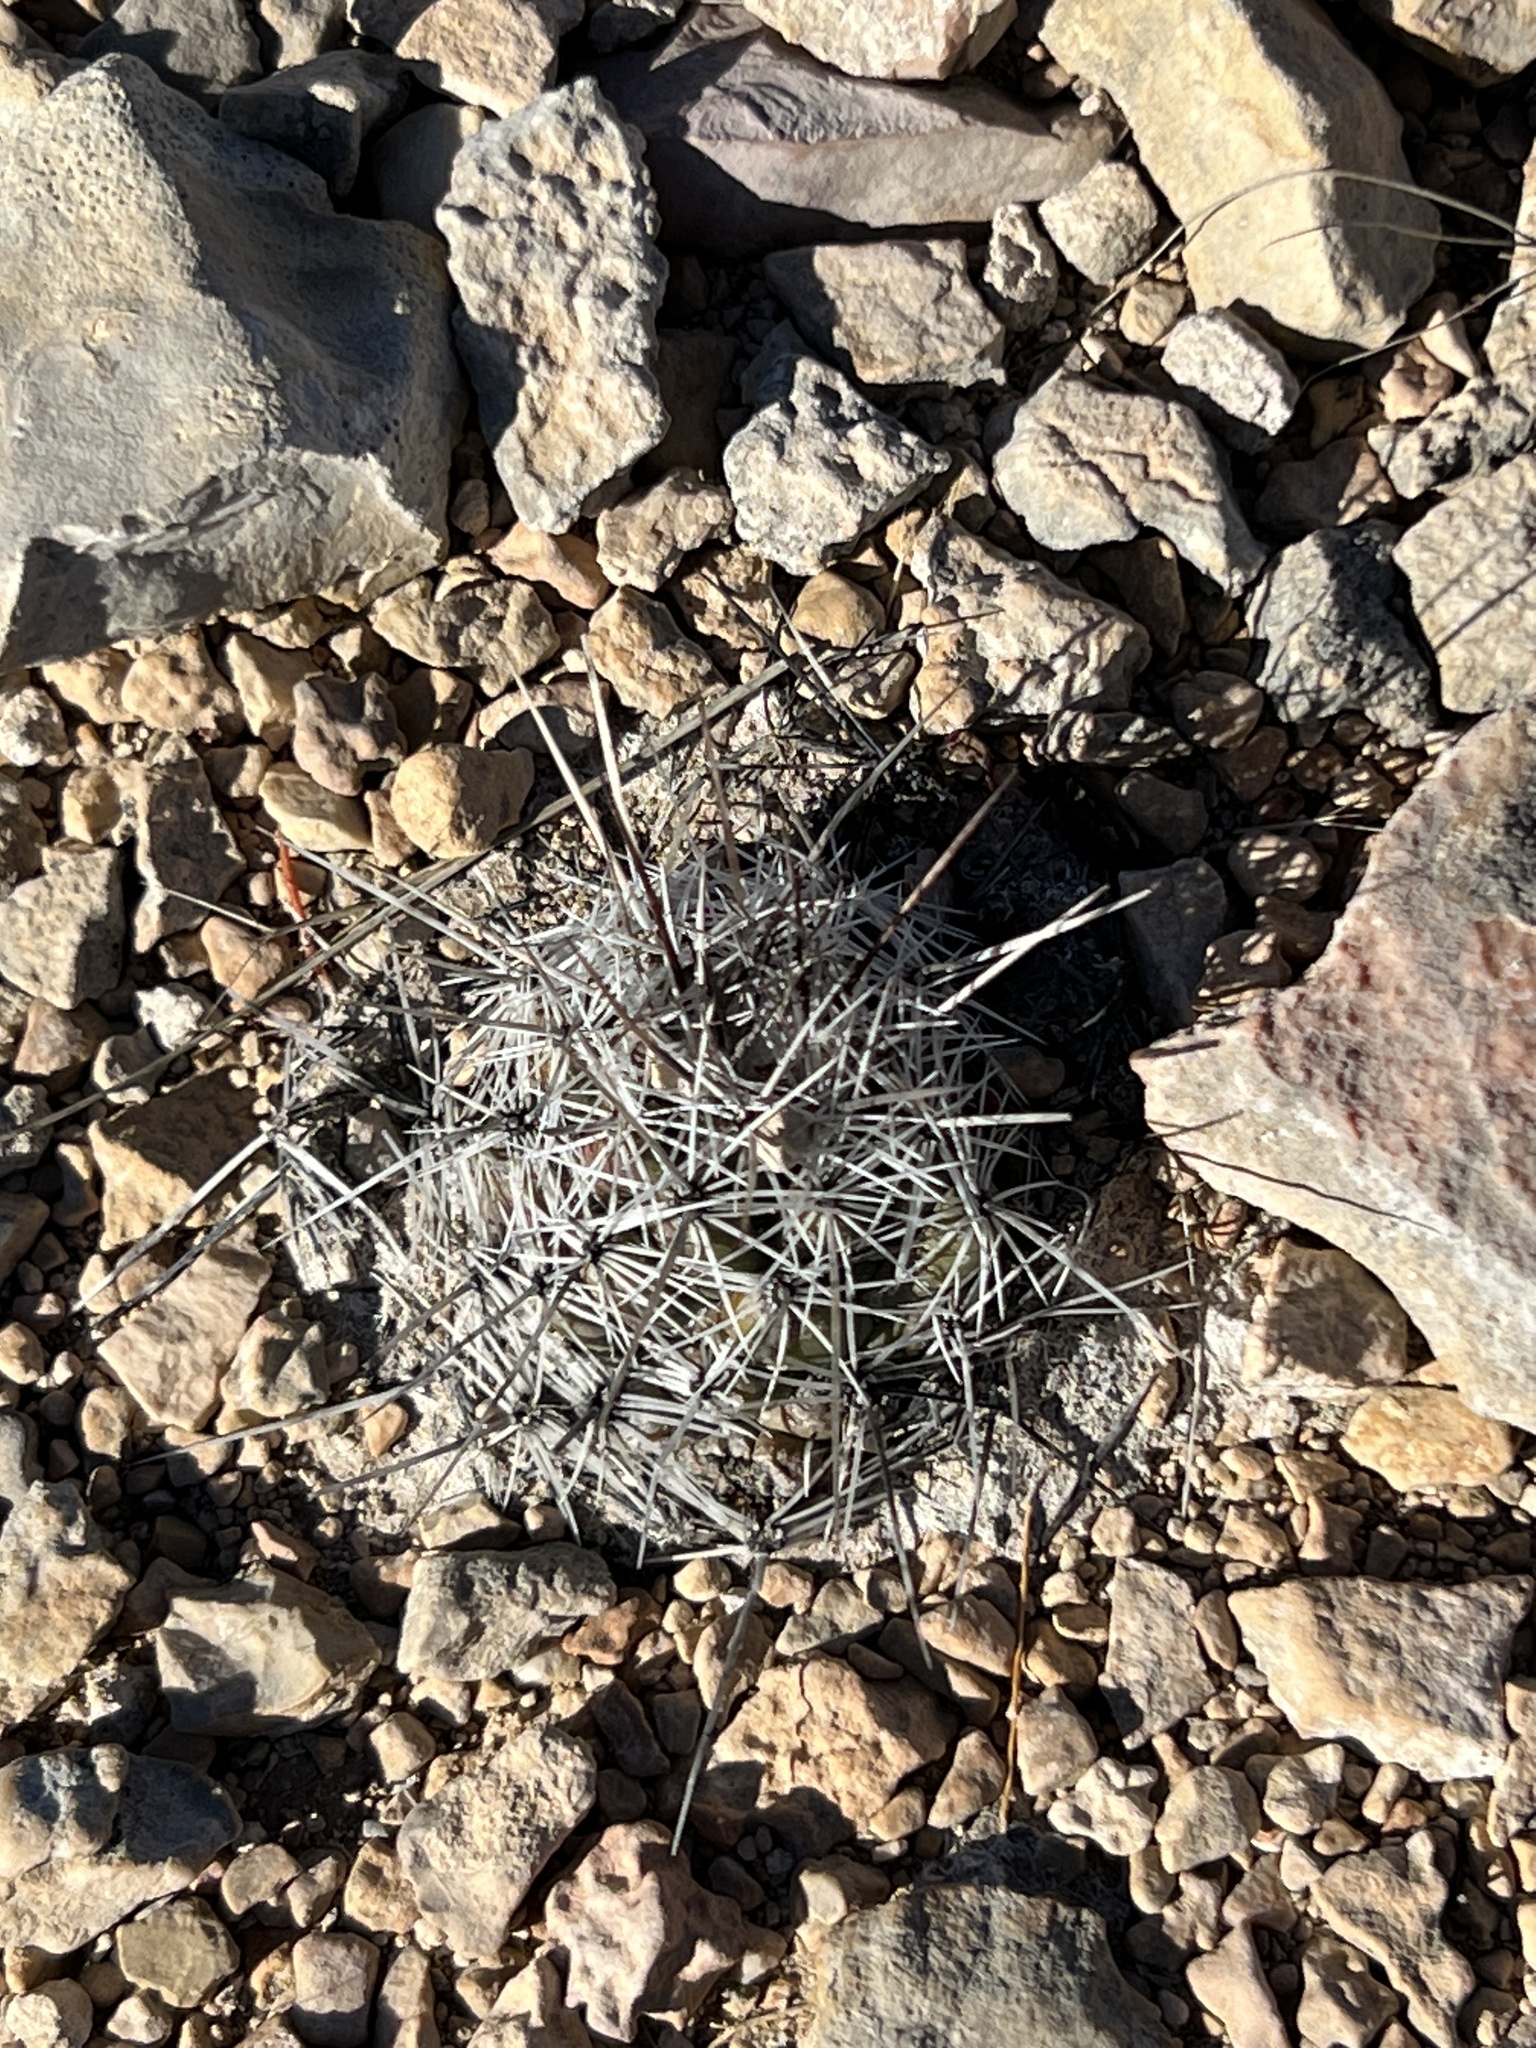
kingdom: Plantae
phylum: Tracheophyta
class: Magnoliopsida
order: Caryophyllales
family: Cactaceae
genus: Coryphantha
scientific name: Coryphantha echinus
